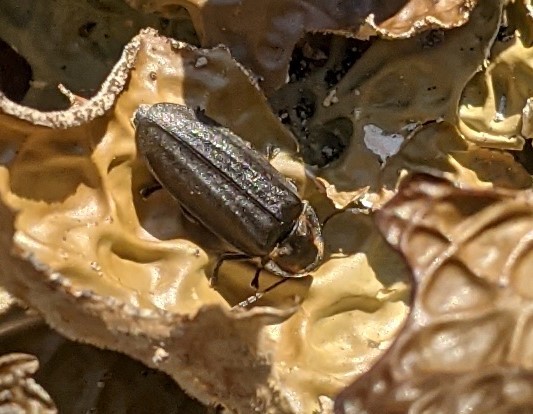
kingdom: Animalia
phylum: Arthropoda
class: Insecta
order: Coleoptera
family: Lampyridae
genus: Photinus
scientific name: Photinus corrusca
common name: Winter firefly
